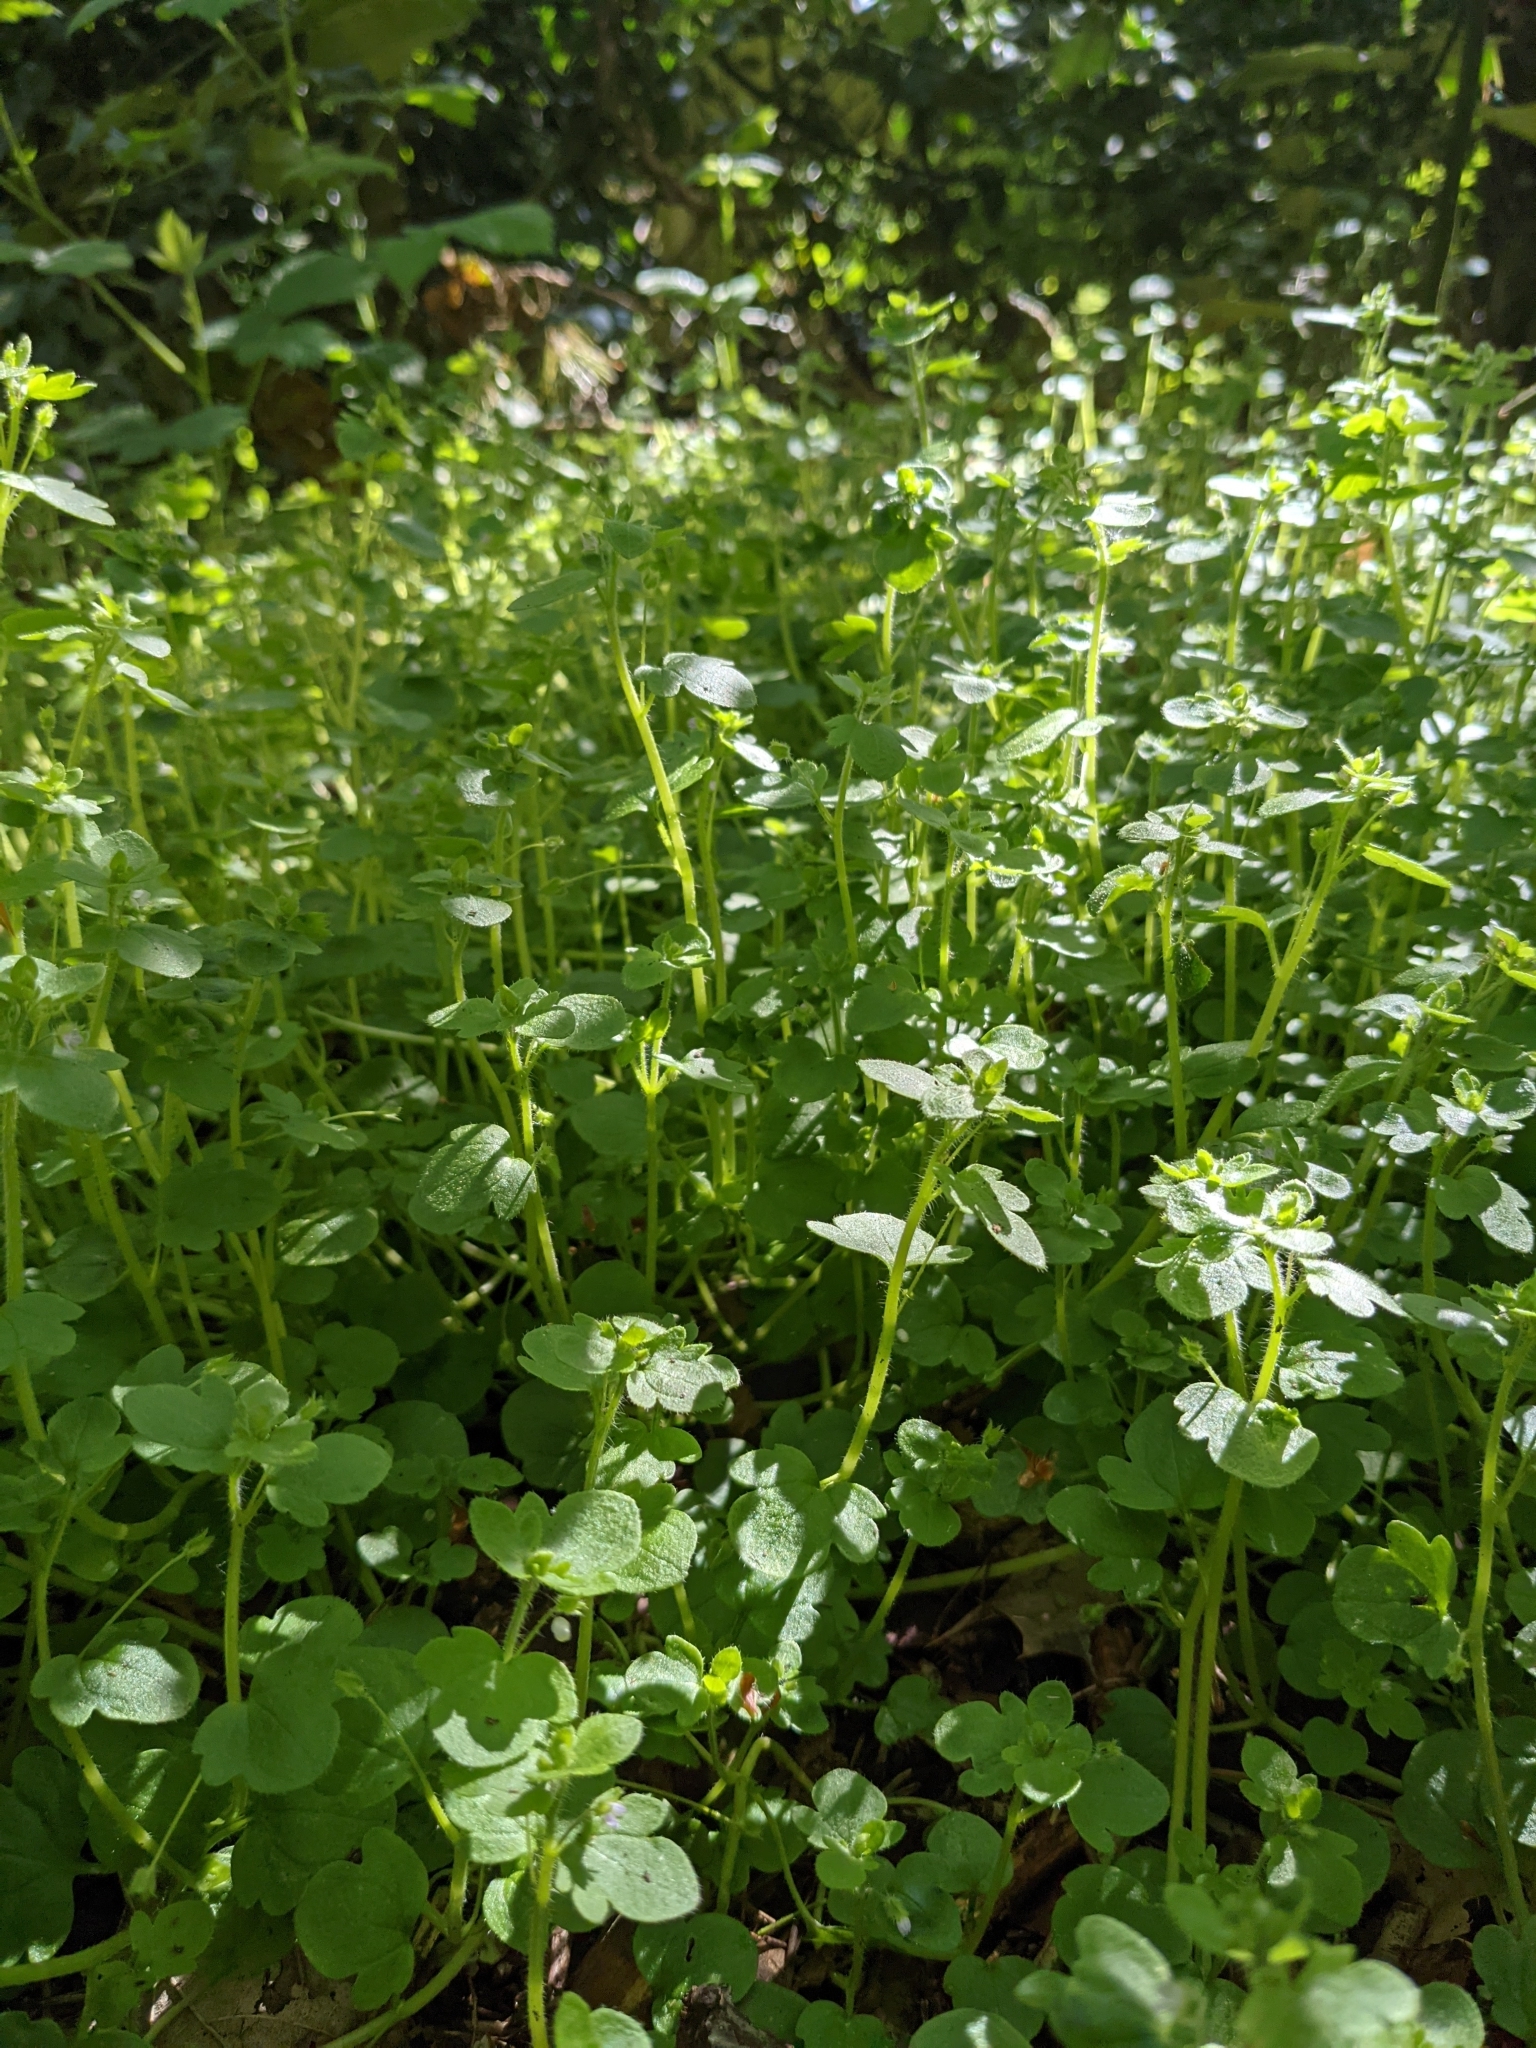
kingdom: Plantae
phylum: Tracheophyta
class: Magnoliopsida
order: Lamiales
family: Plantaginaceae
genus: Veronica
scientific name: Veronica sublobata
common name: False ivy-leaved speedwell
